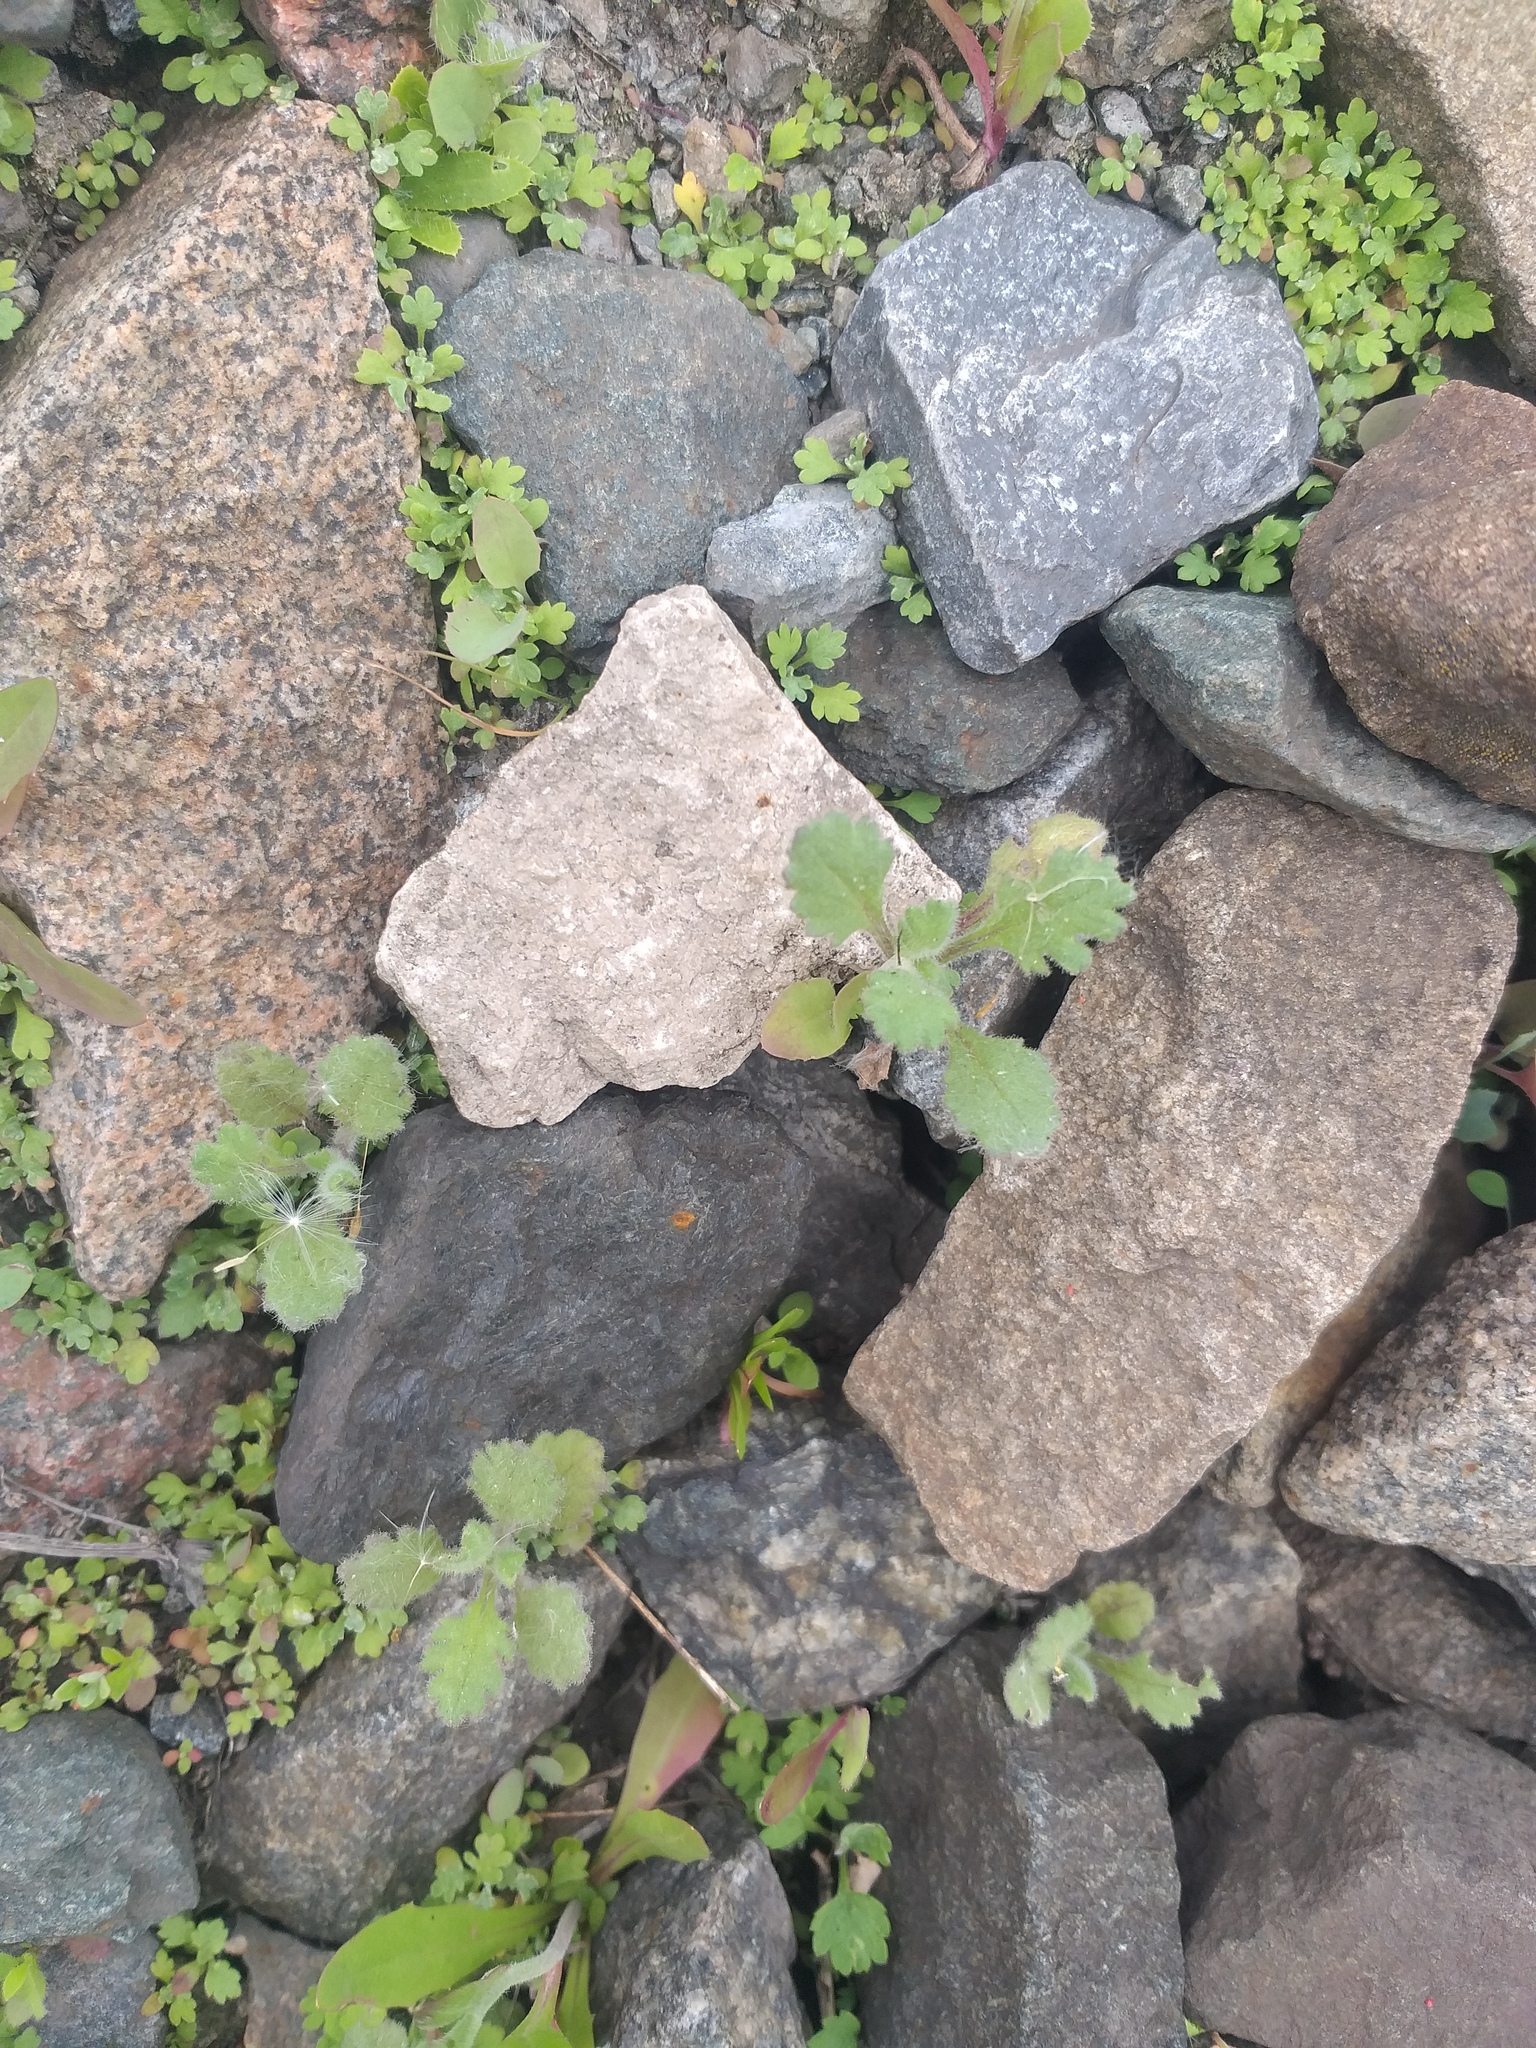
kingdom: Plantae
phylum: Tracheophyta
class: Magnoliopsida
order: Asterales
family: Asteraceae
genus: Senecio
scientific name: Senecio viscosus
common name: Sticky groundsel
